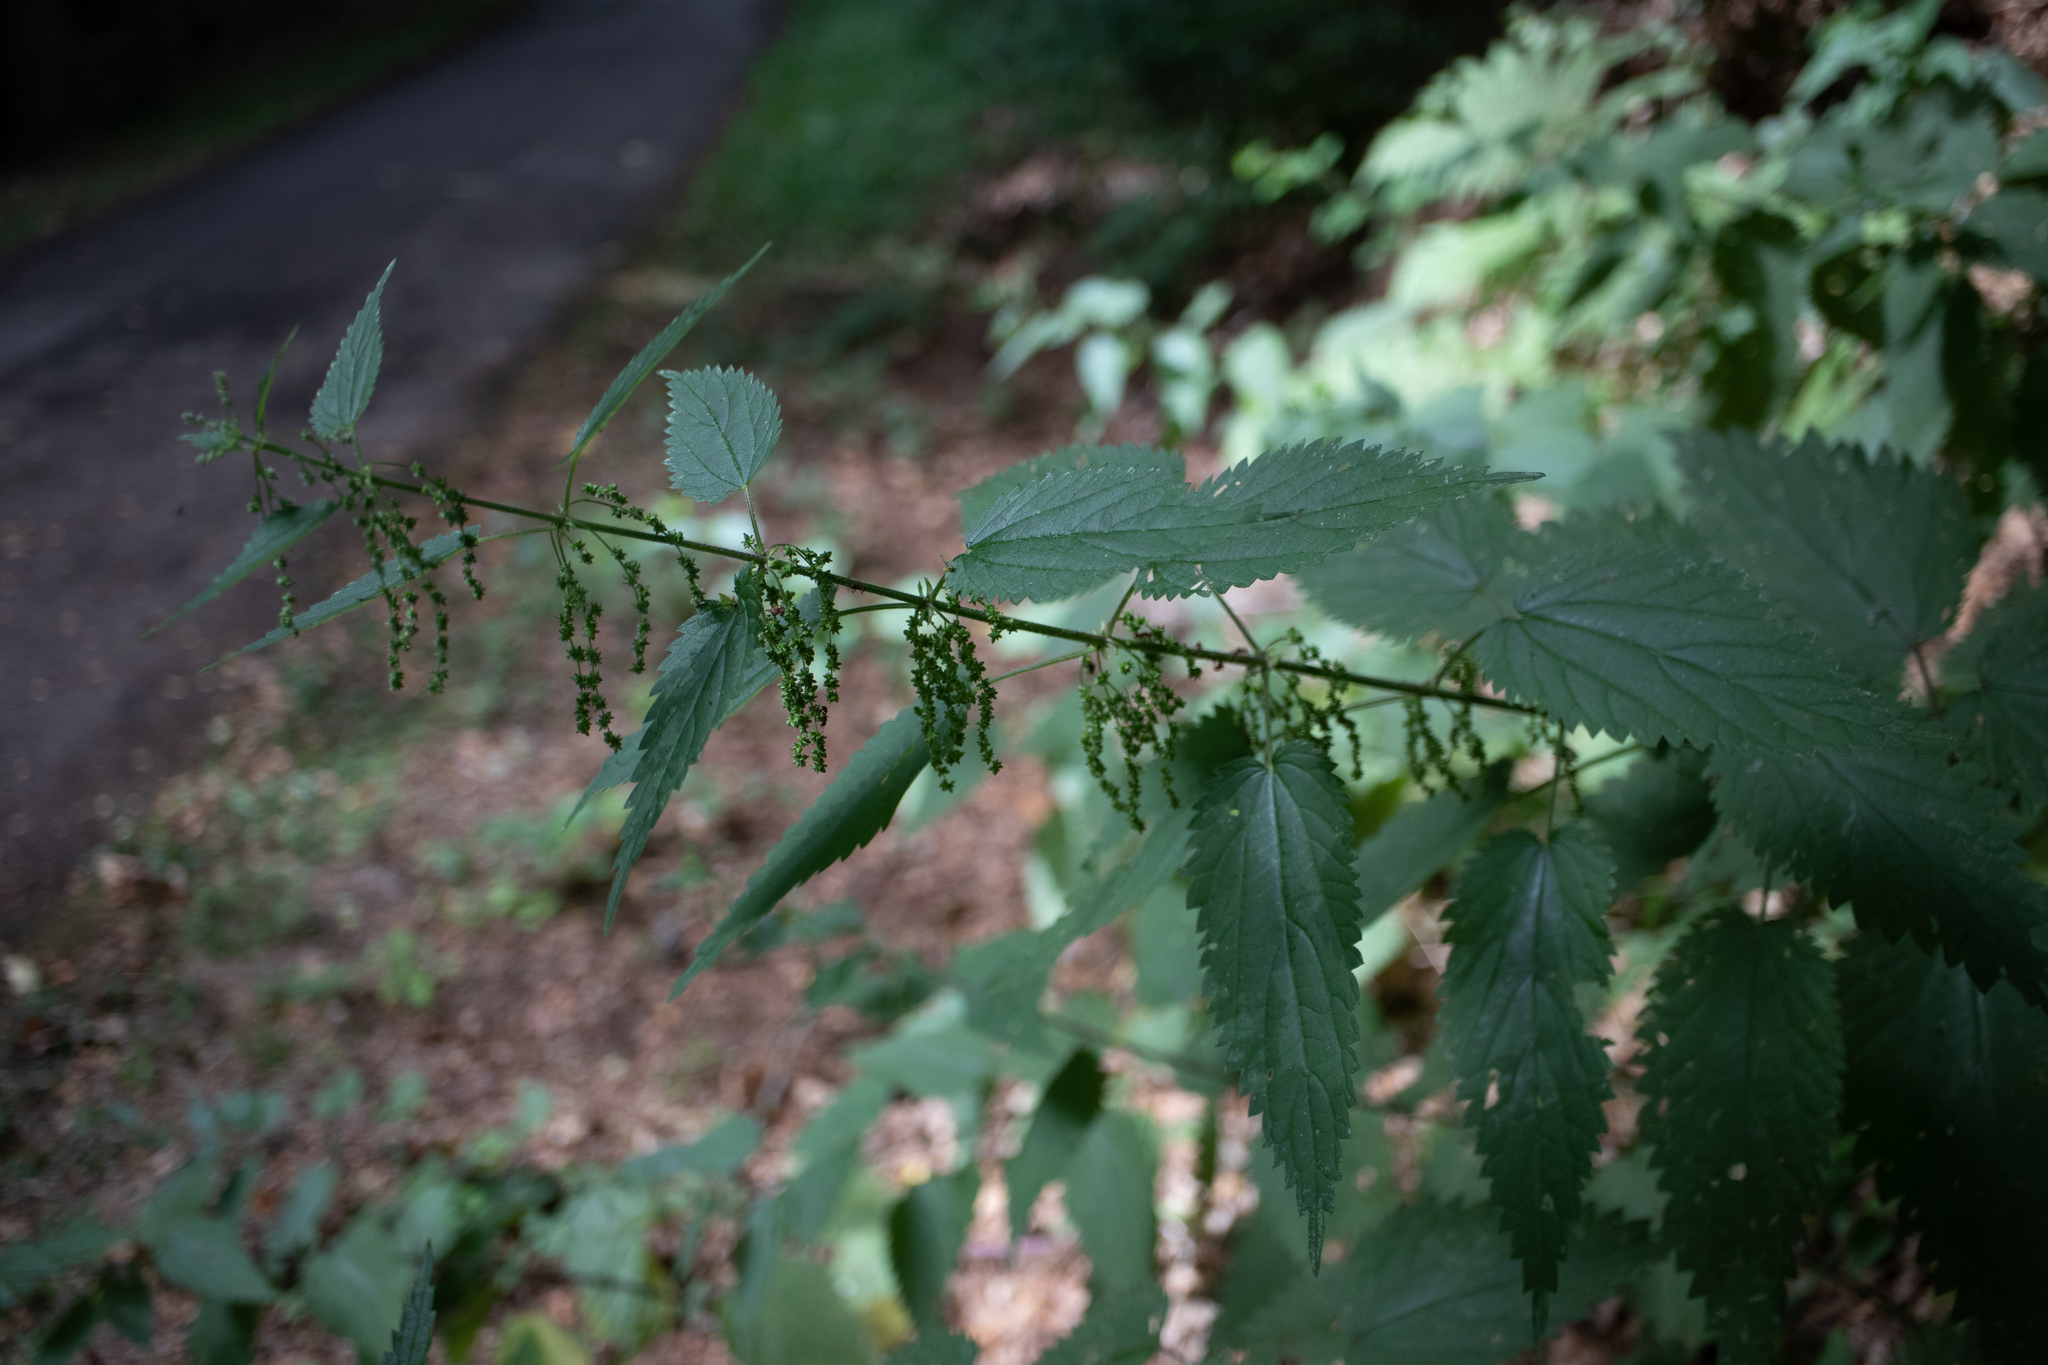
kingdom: Plantae
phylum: Tracheophyta
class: Magnoliopsida
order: Rosales
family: Urticaceae
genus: Urtica
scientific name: Urtica dioica
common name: Common nettle
